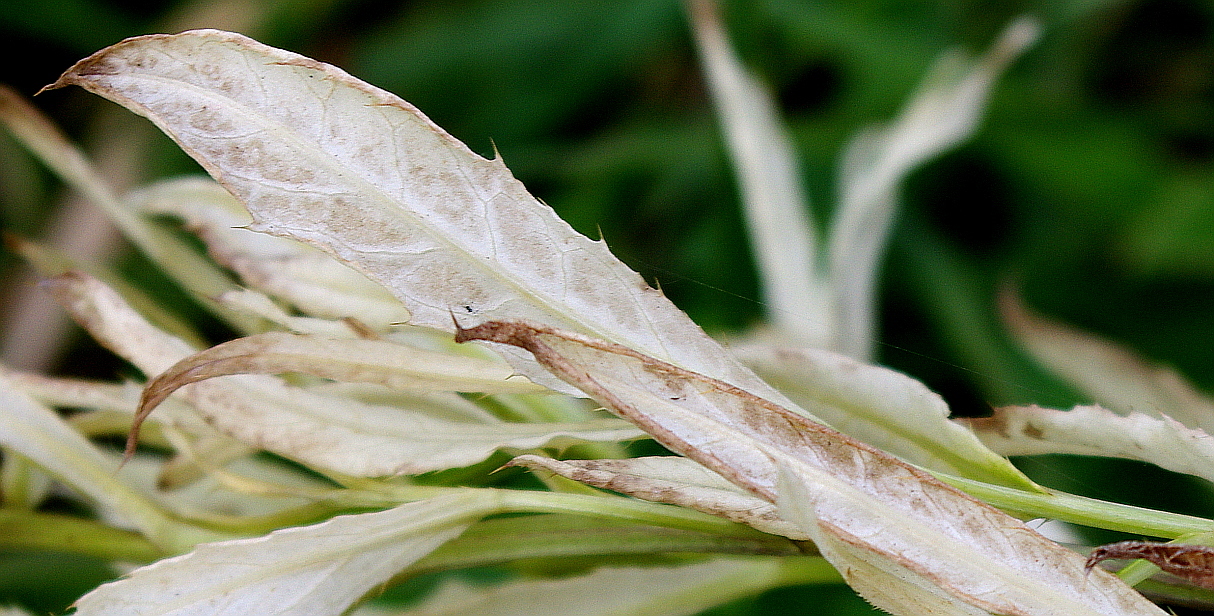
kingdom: Plantae
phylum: Tracheophyta
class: Magnoliopsida
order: Asterales
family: Asteraceae
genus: Cirsium
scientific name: Cirsium arvense
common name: Creeping thistle
